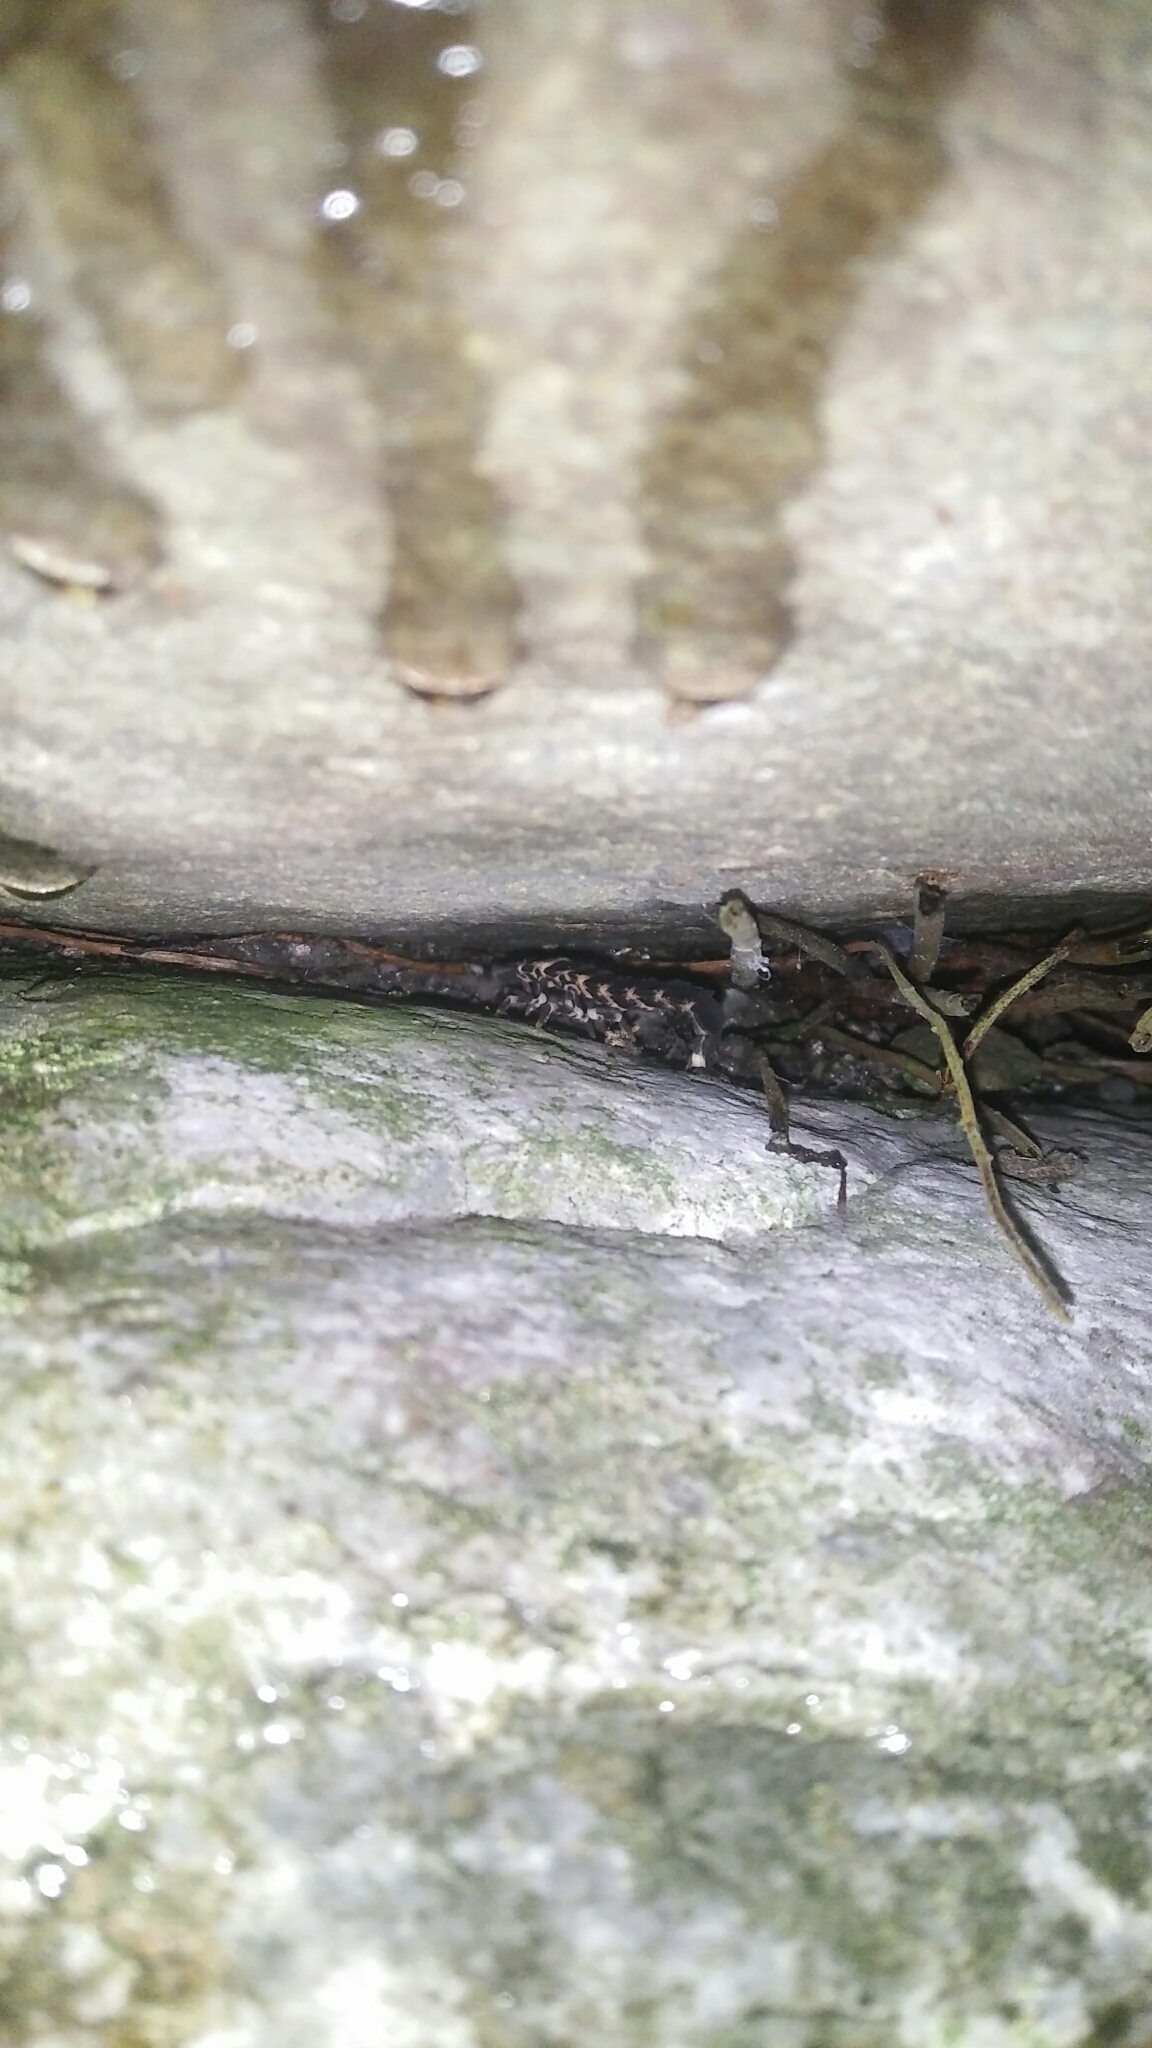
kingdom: Animalia
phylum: Arthropoda
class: Insecta
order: Coleoptera
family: Lampyridae
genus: Pyrocoelia
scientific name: Pyrocoelia analis
